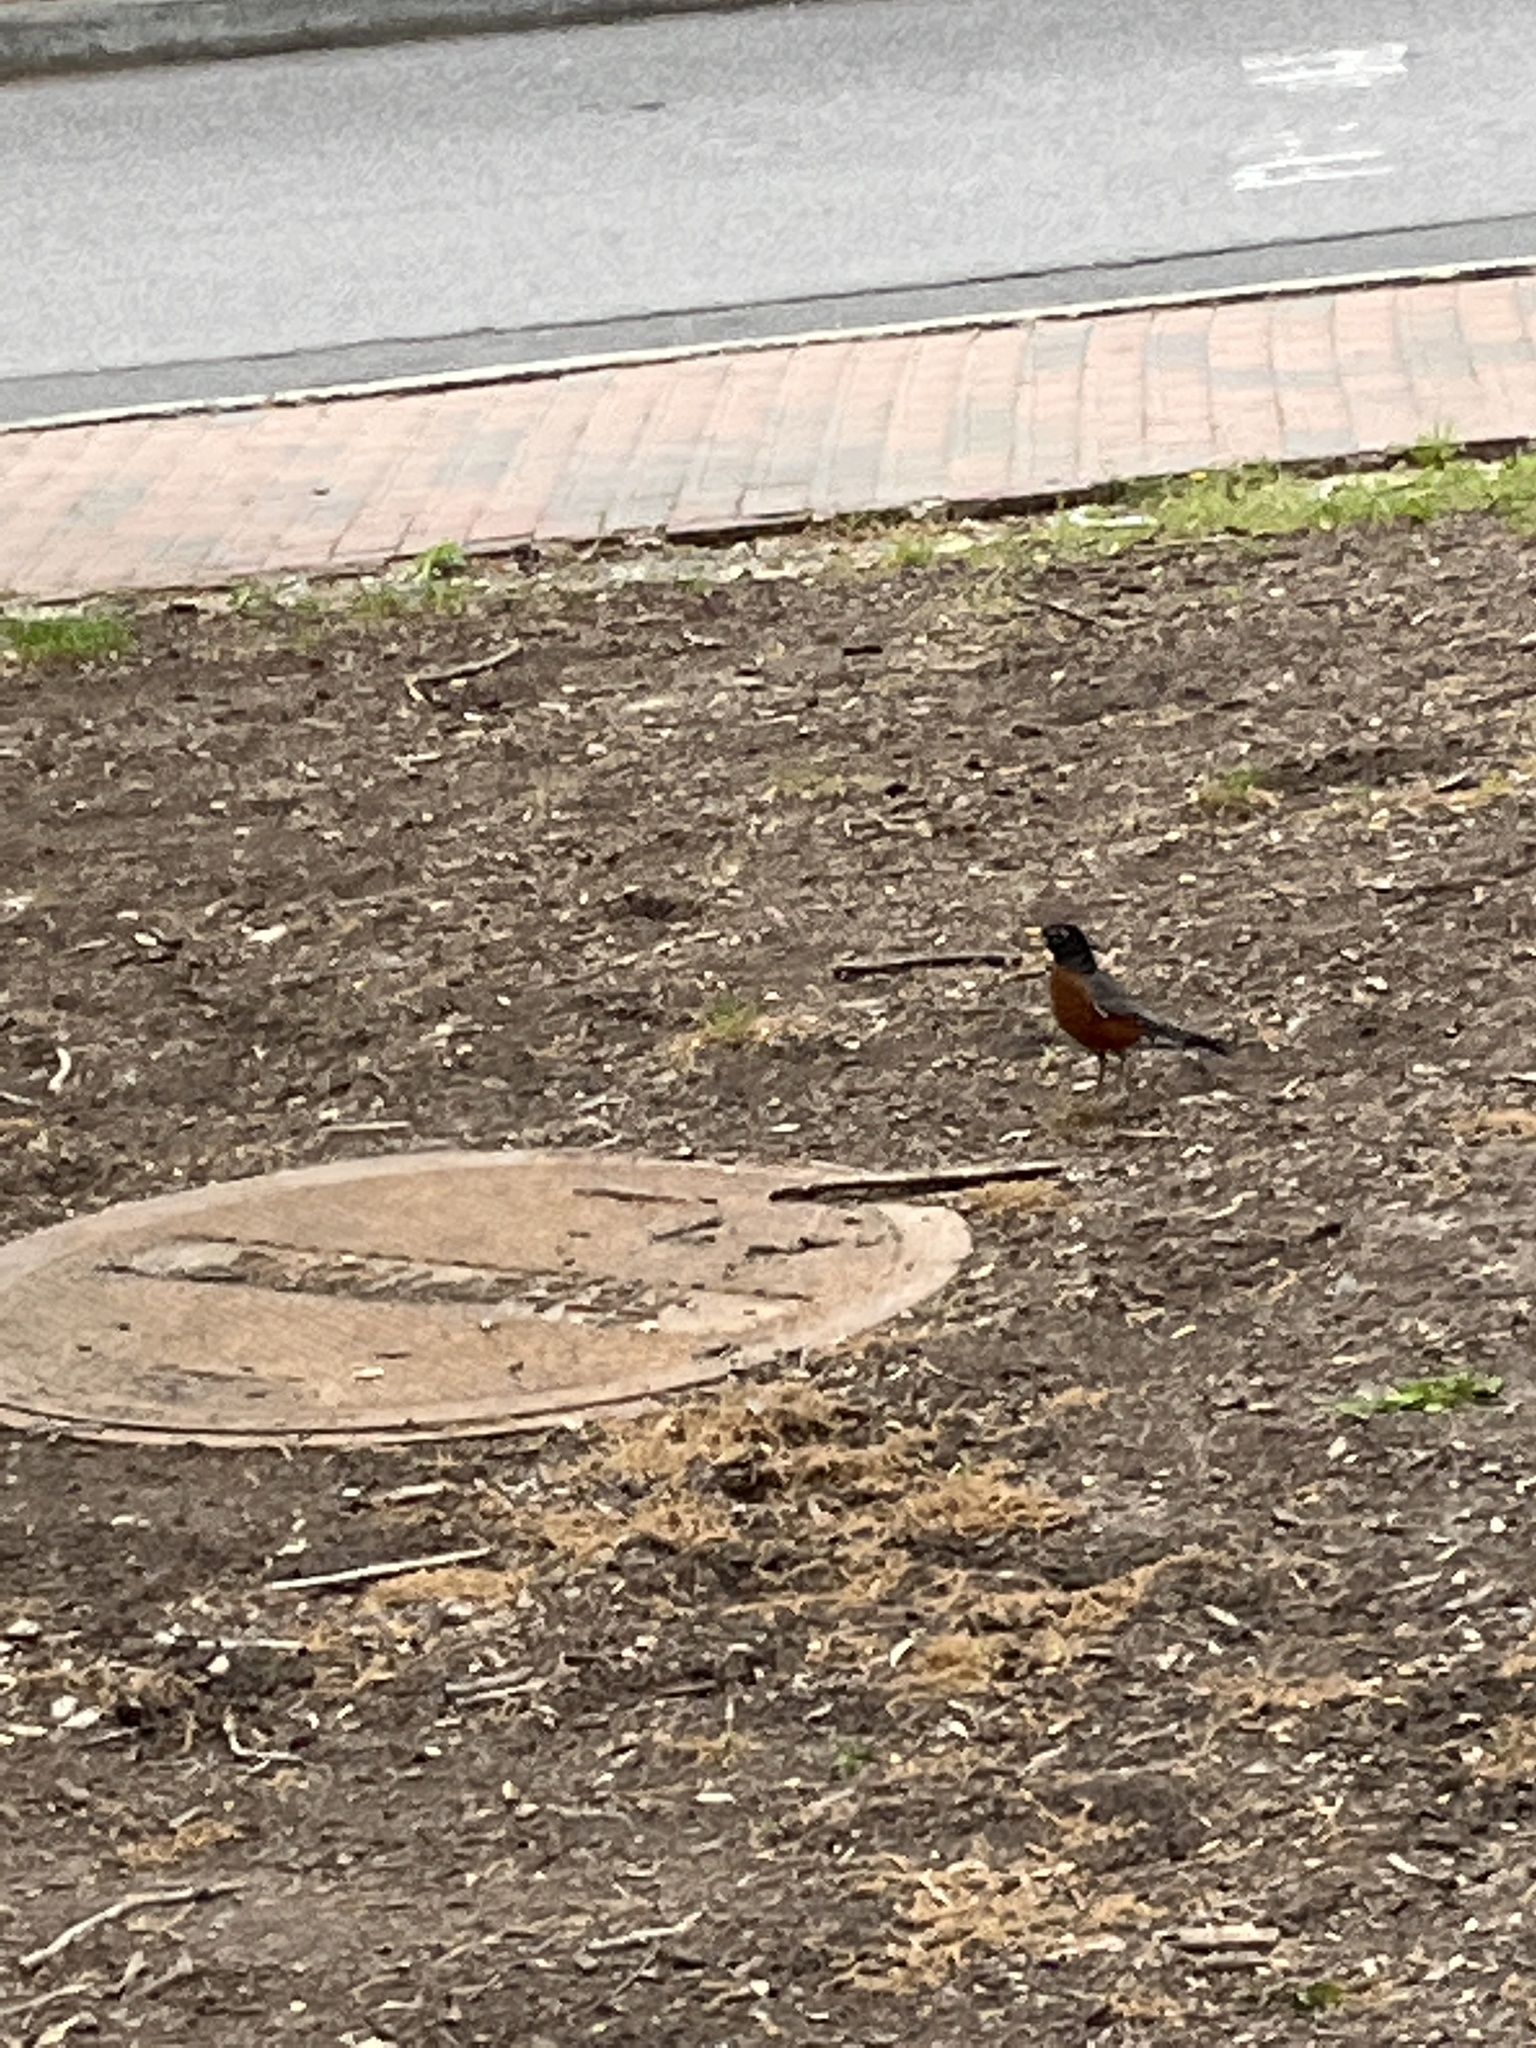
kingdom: Animalia
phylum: Chordata
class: Aves
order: Passeriformes
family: Turdidae
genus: Turdus
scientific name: Turdus migratorius
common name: American robin
